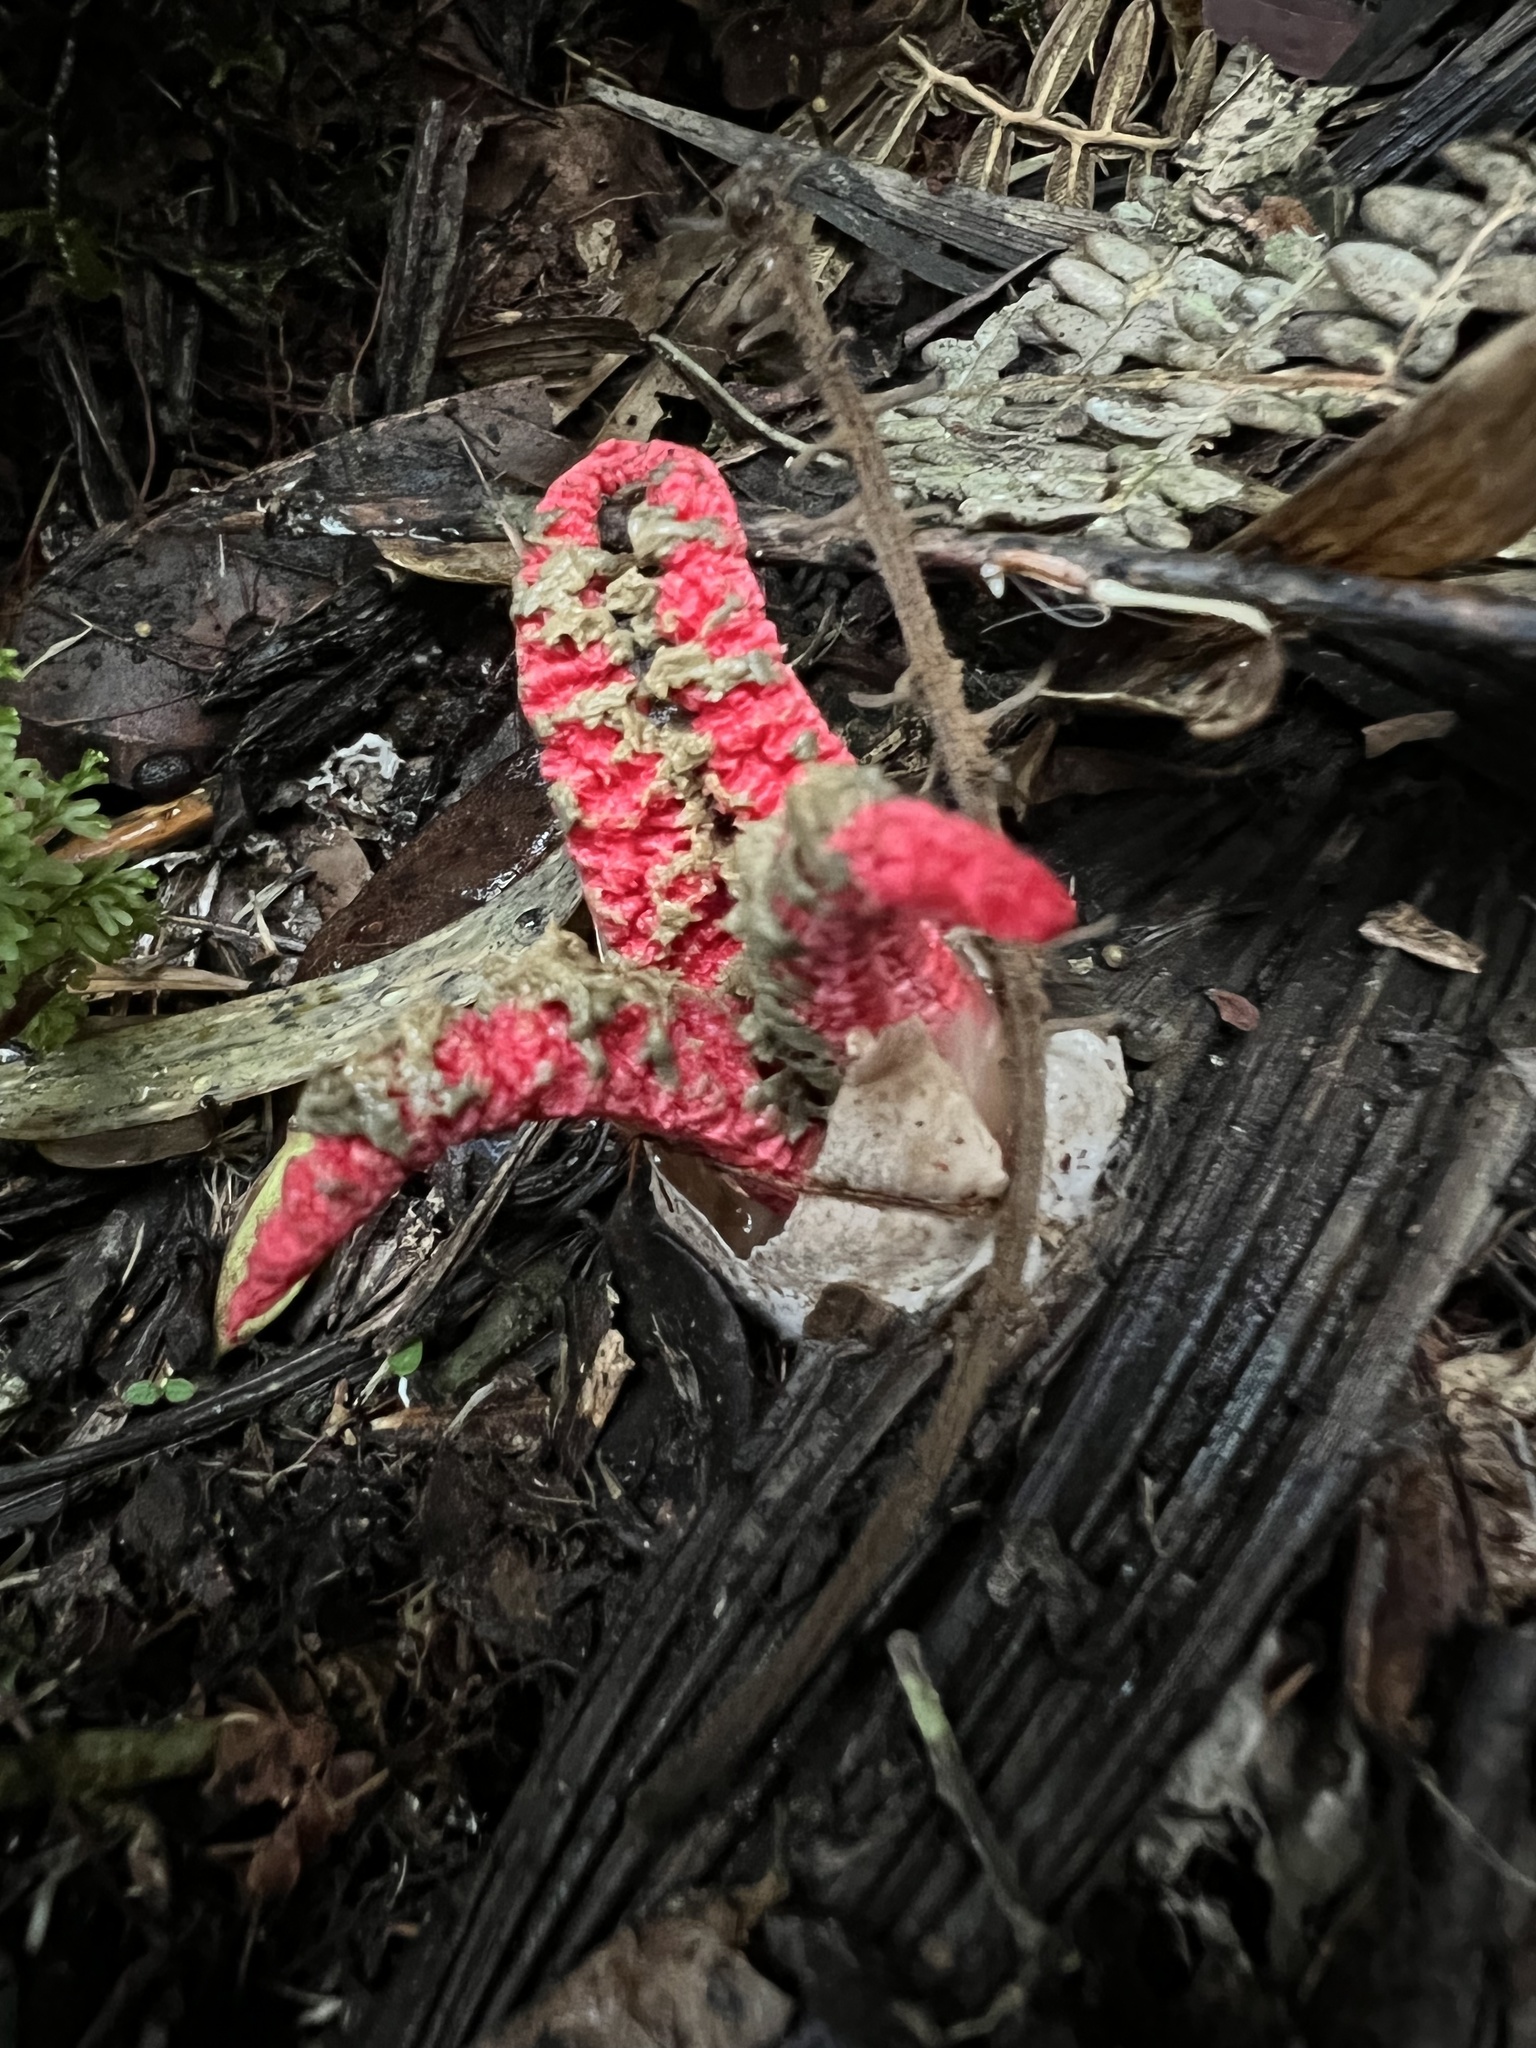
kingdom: Fungi
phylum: Basidiomycota
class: Agaricomycetes
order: Phallales
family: Phallaceae
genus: Clathrus
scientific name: Clathrus archeri
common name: Devil's fingers
